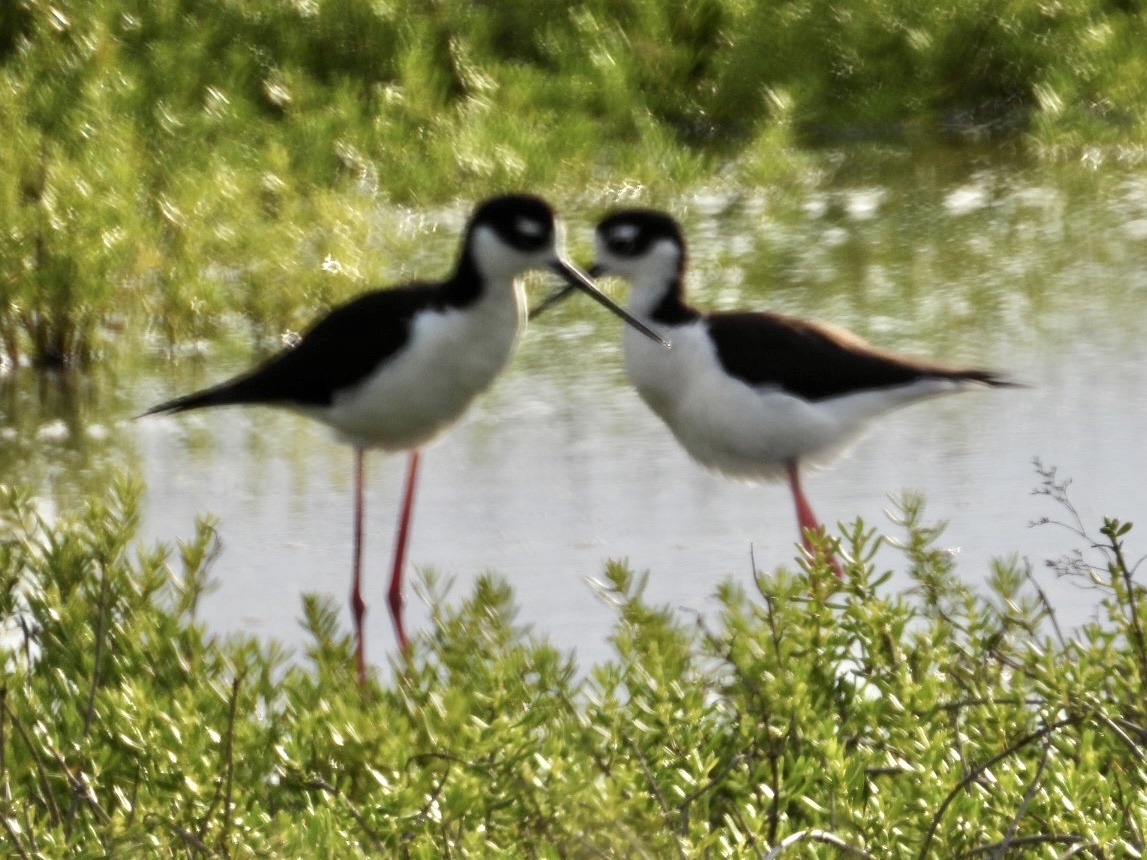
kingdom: Animalia
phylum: Chordata
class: Aves
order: Charadriiformes
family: Recurvirostridae
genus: Himantopus
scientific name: Himantopus mexicanus
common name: Black-necked stilt
